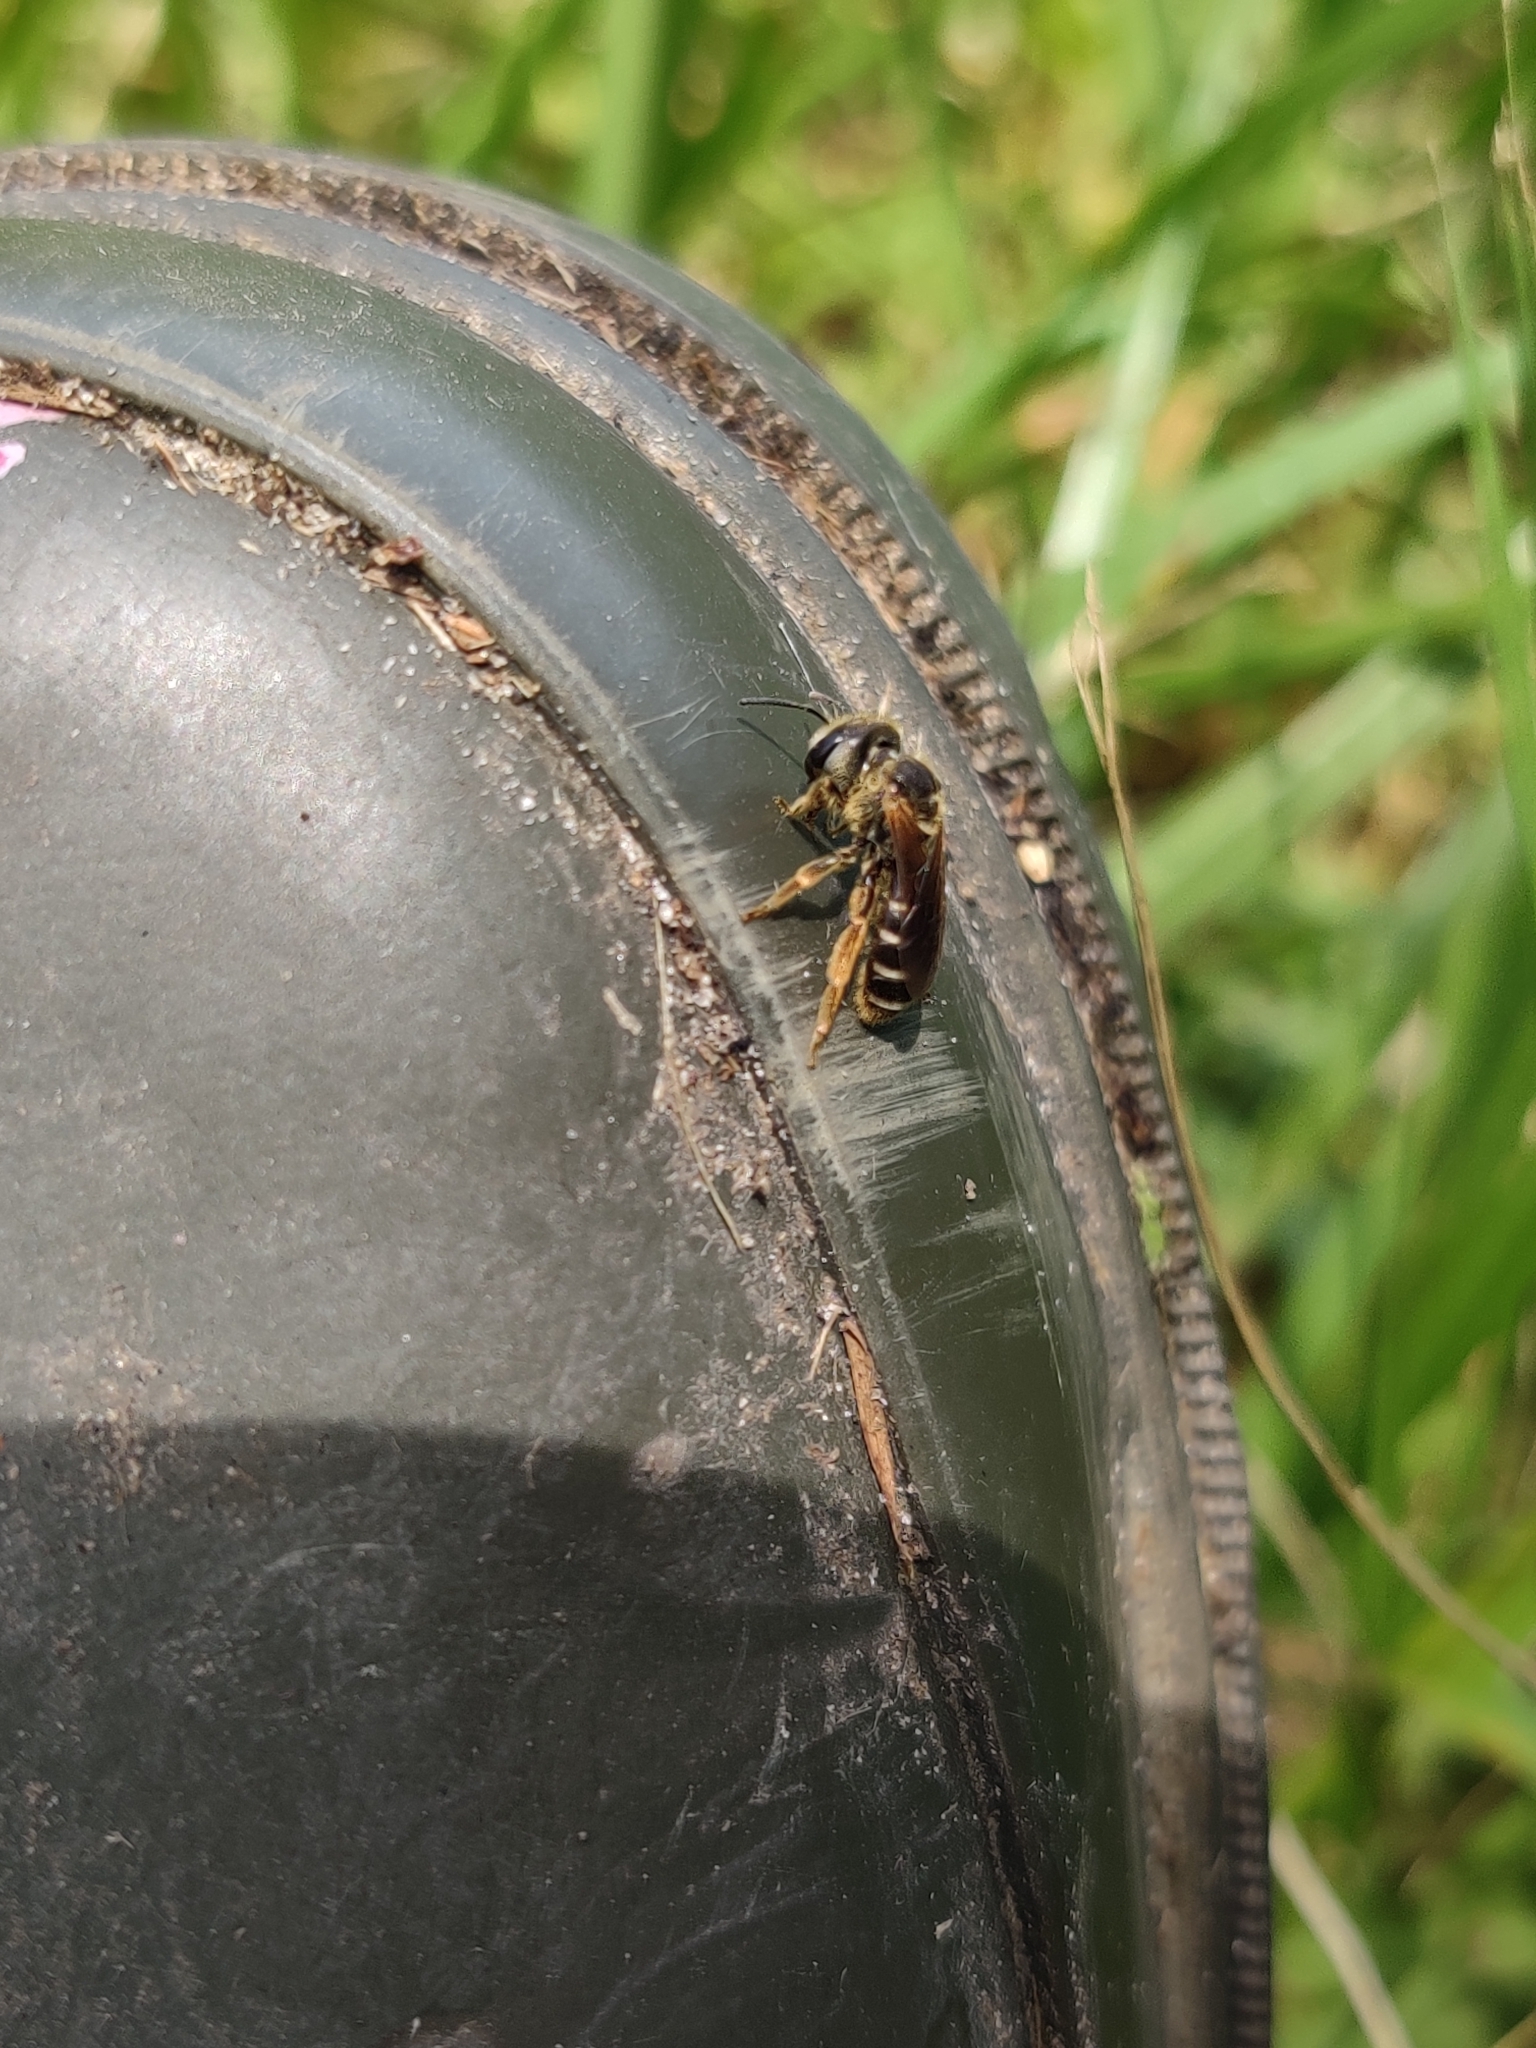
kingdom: Animalia
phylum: Arthropoda
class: Insecta
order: Hymenoptera
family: Halictidae
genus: Halictus
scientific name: Halictus poeyi
